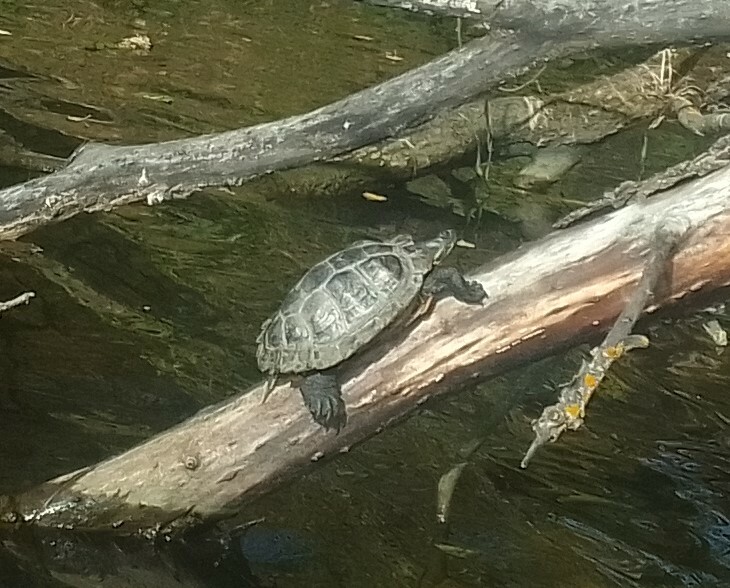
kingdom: Animalia
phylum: Chordata
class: Testudines
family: Emydidae
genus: Trachemys
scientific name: Trachemys scripta
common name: Slider
